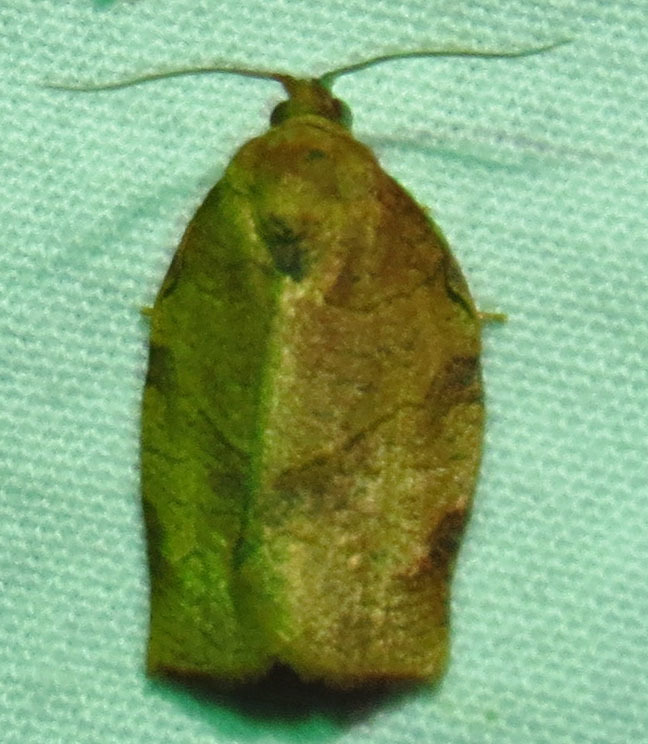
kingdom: Animalia
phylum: Arthropoda
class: Insecta
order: Lepidoptera
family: Tortricidae
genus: Choristoneura
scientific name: Choristoneura rosaceana
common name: Oblique-banded leafroller moth
